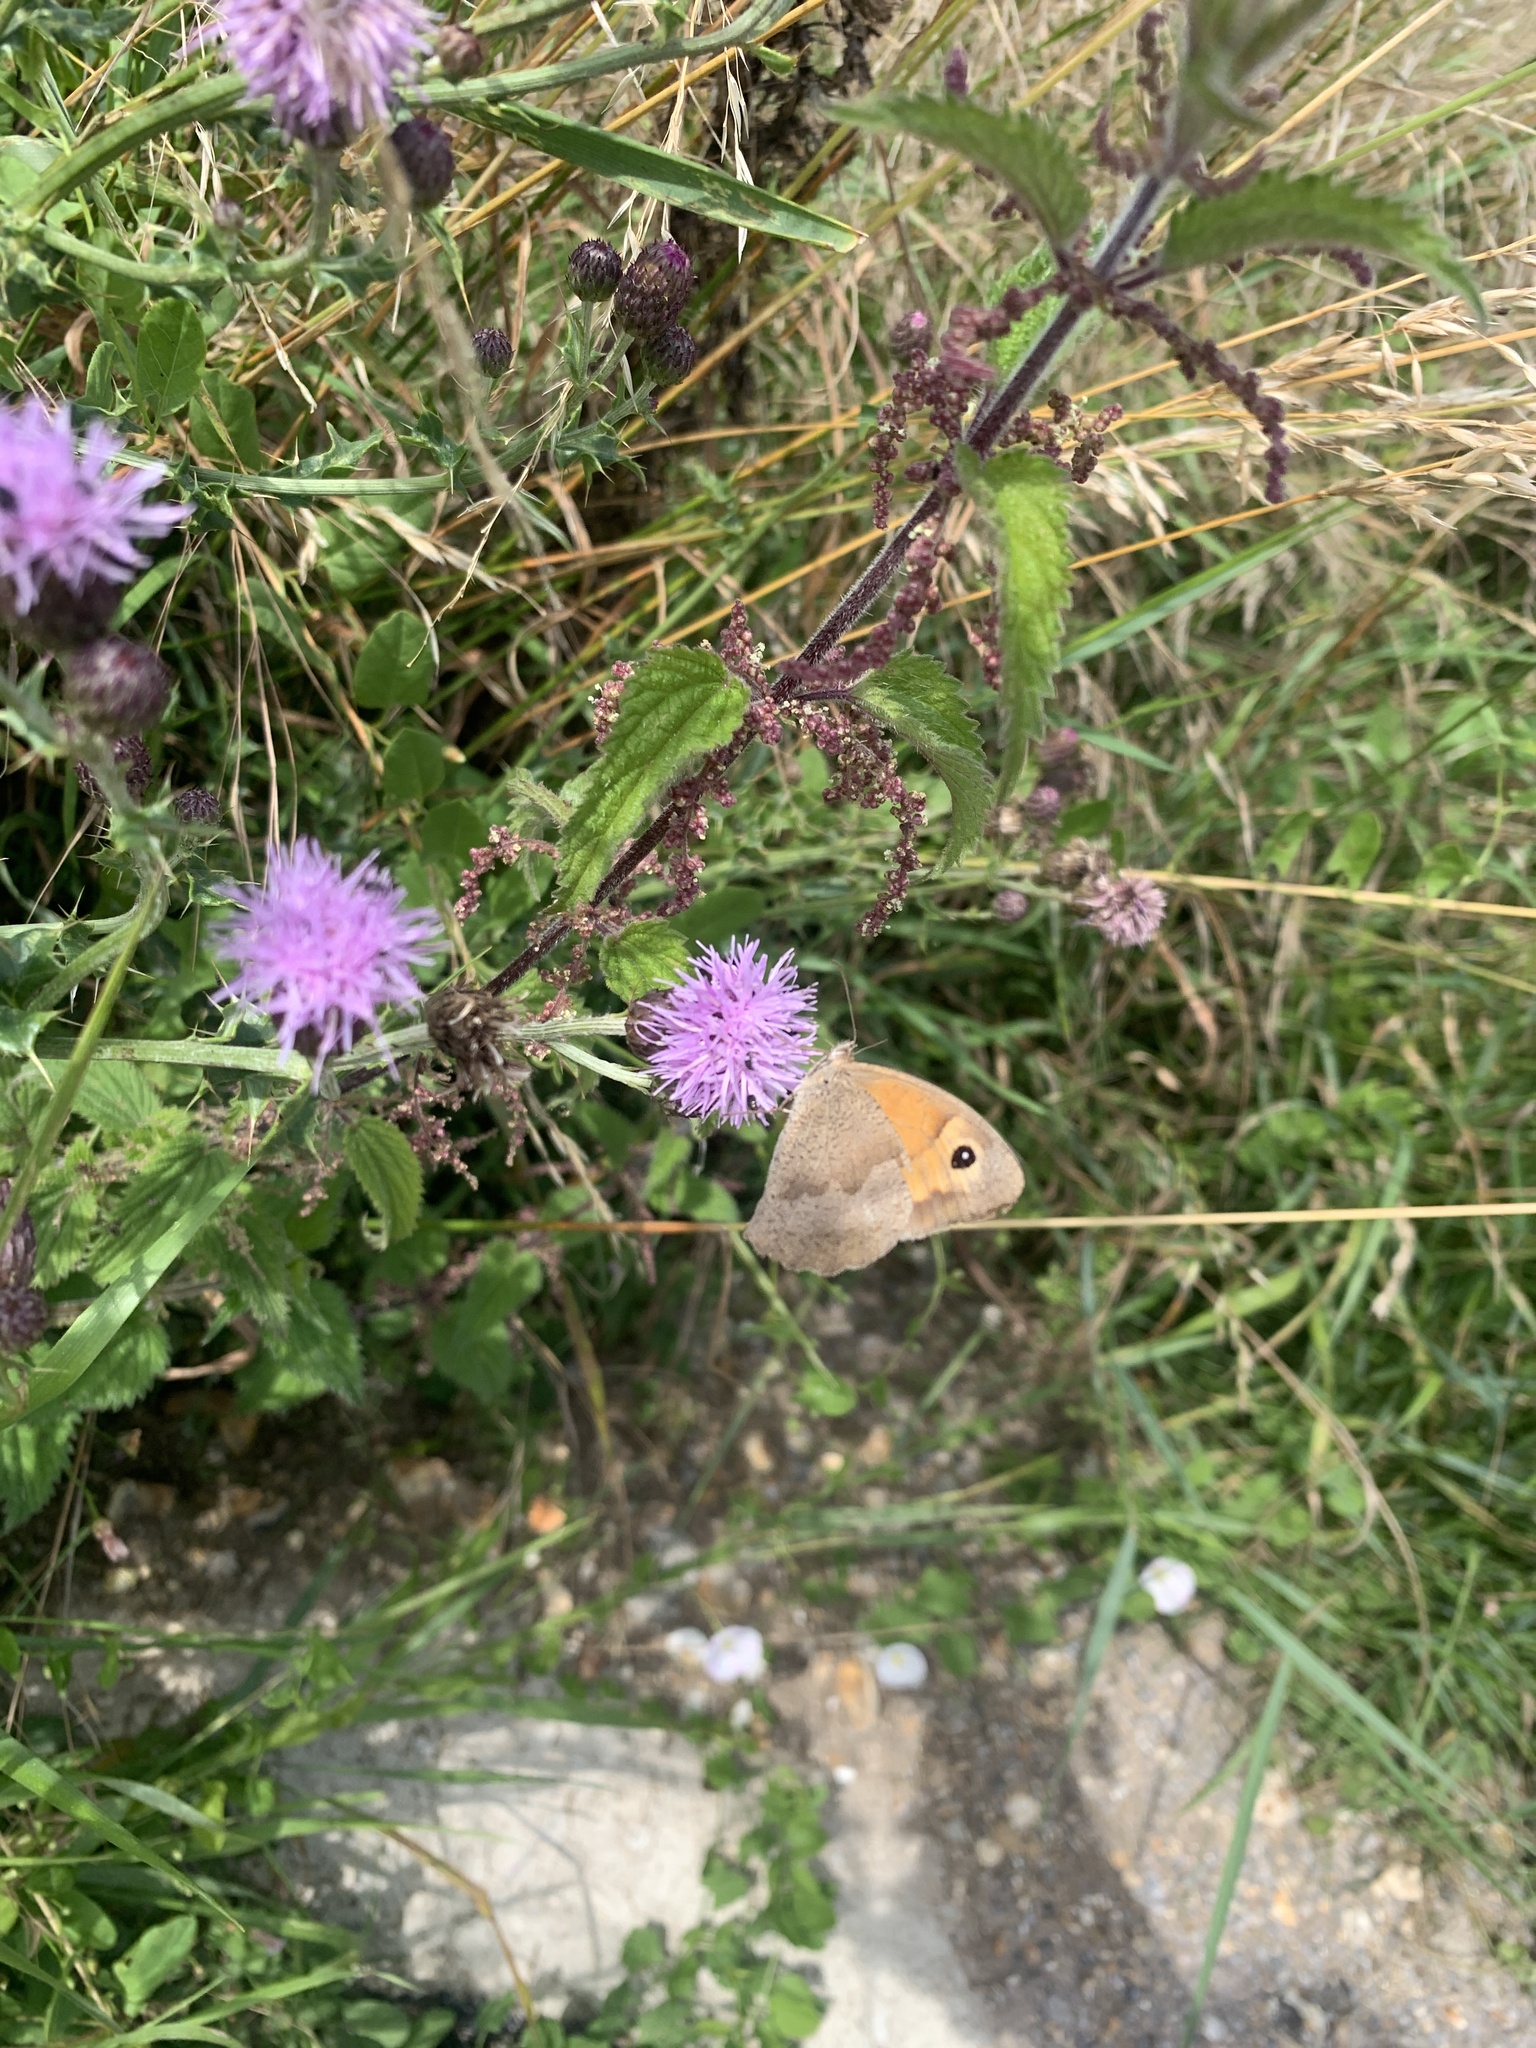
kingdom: Animalia
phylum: Arthropoda
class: Insecta
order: Lepidoptera
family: Nymphalidae
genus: Maniola
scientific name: Maniola jurtina
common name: Meadow brown
